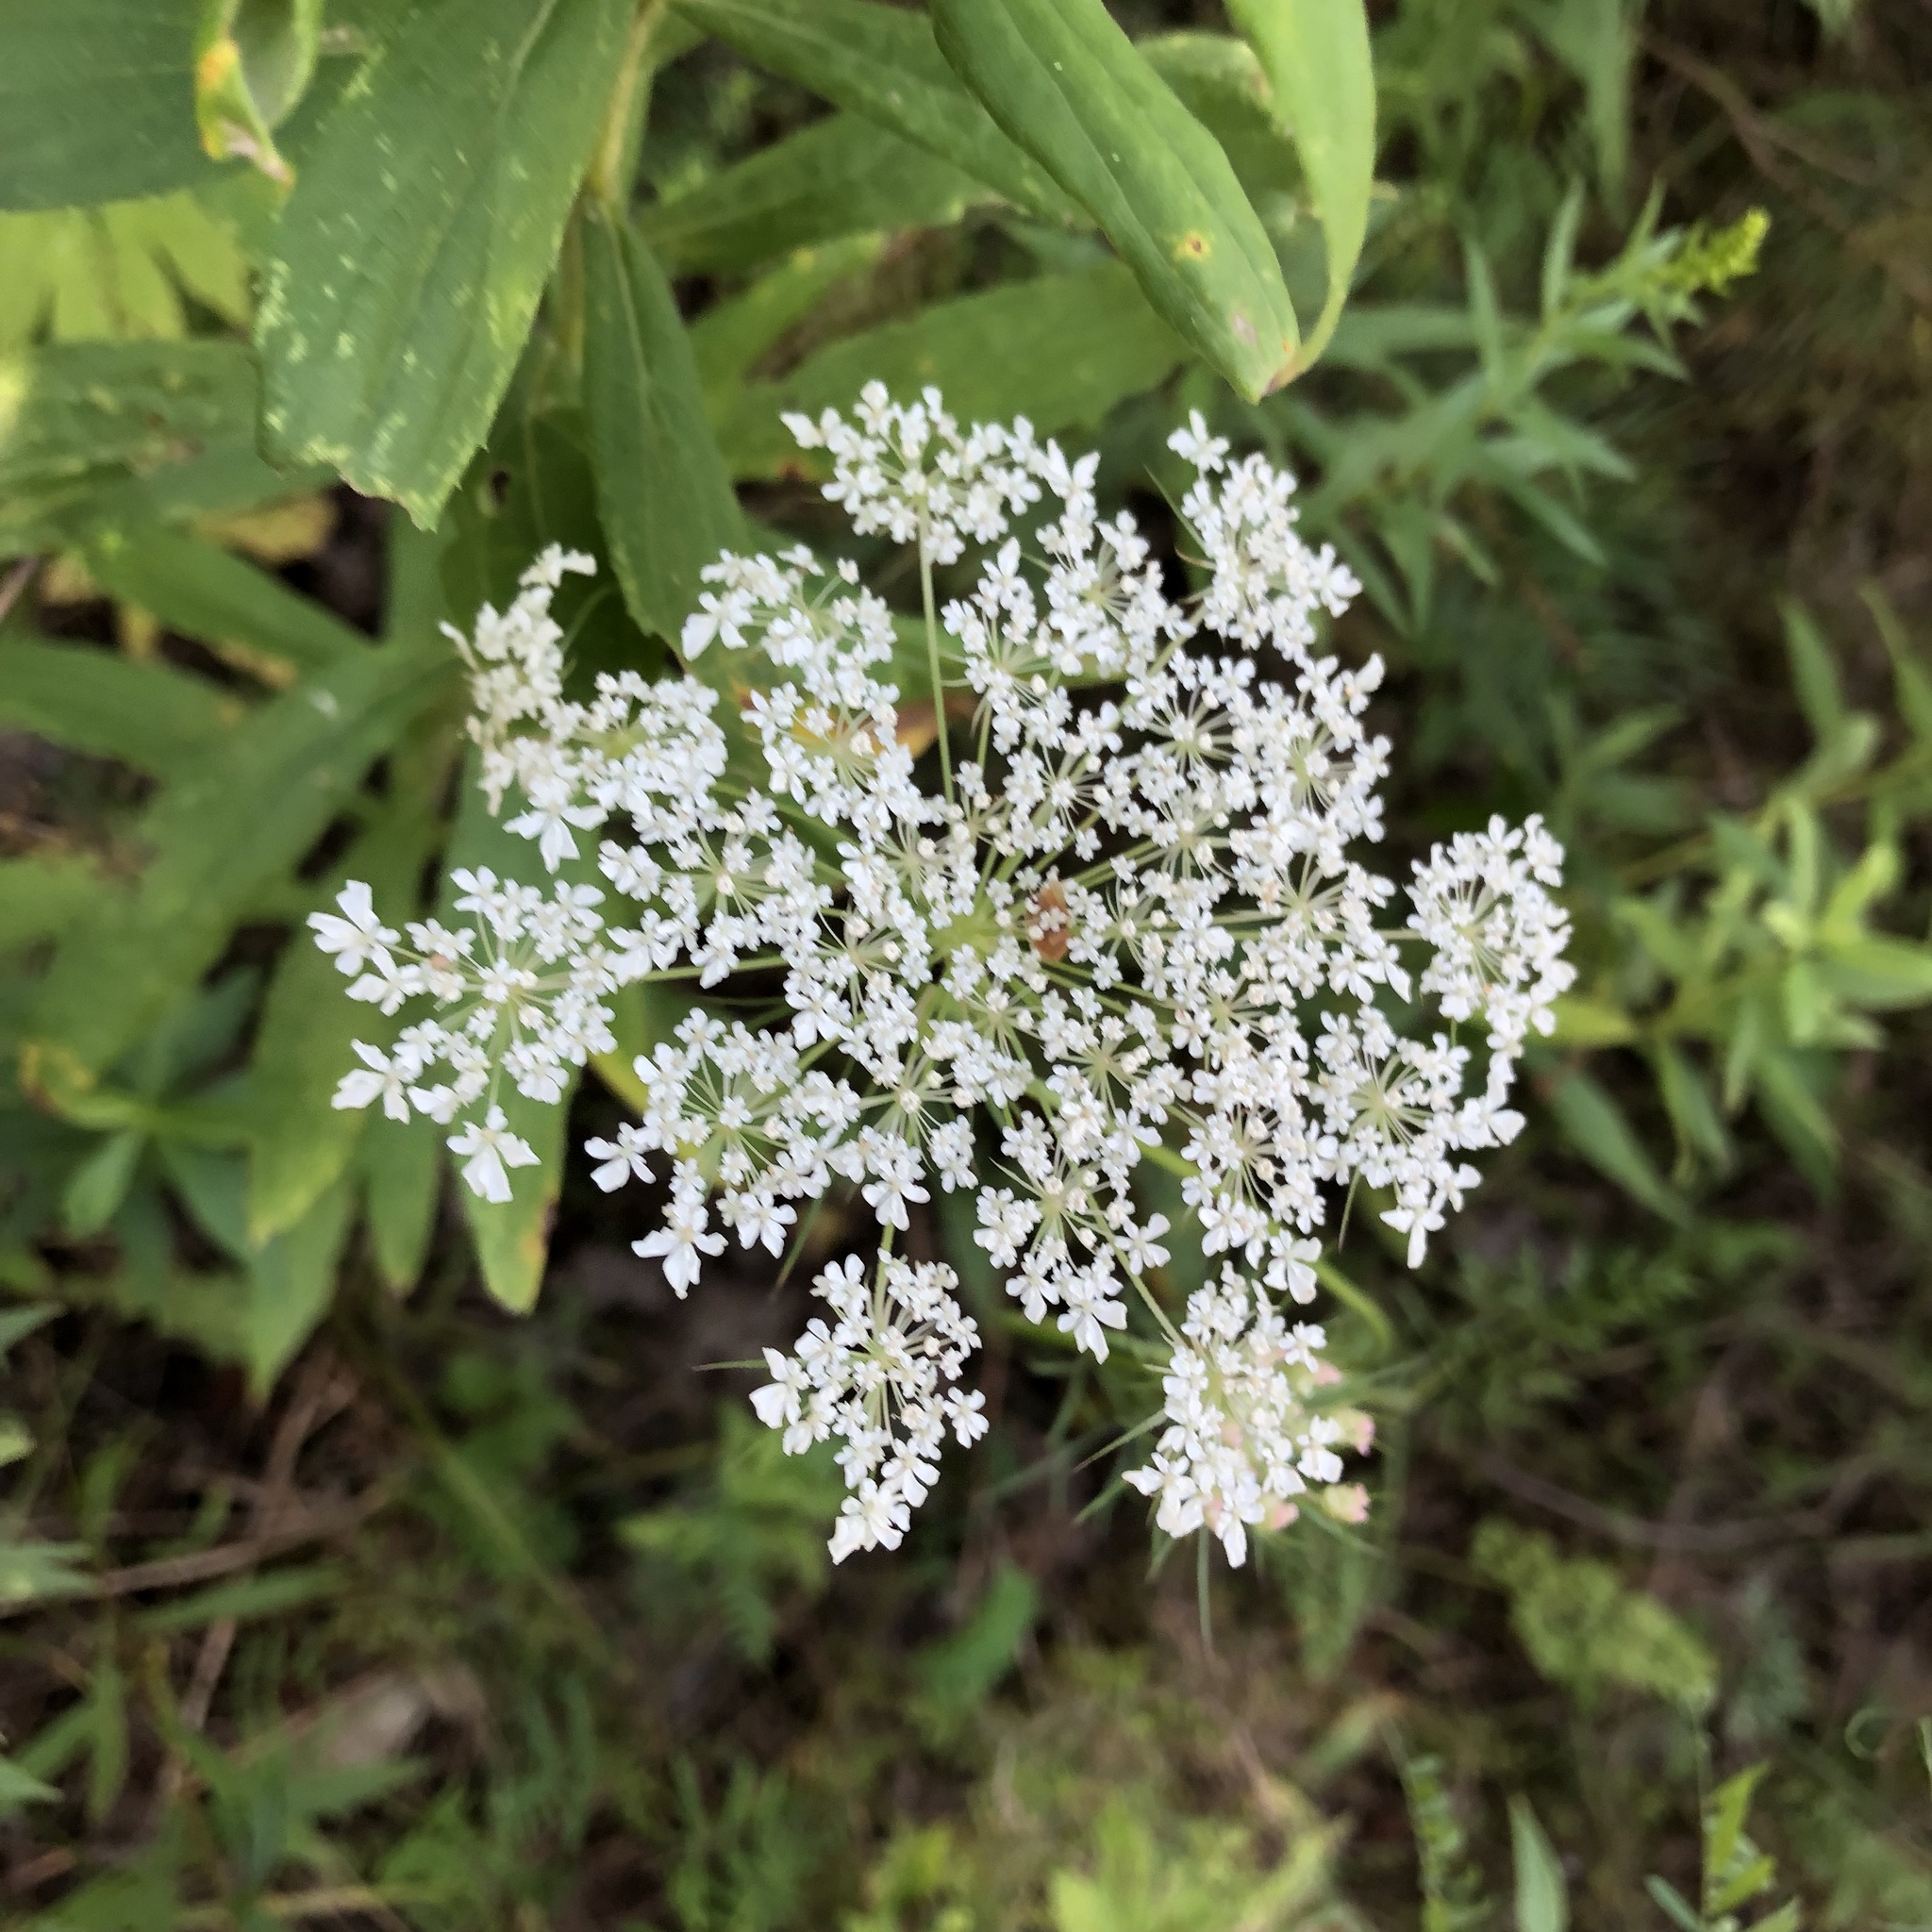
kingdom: Plantae
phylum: Tracheophyta
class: Magnoliopsida
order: Apiales
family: Apiaceae
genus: Daucus
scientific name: Daucus carota
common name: Wild carrot
